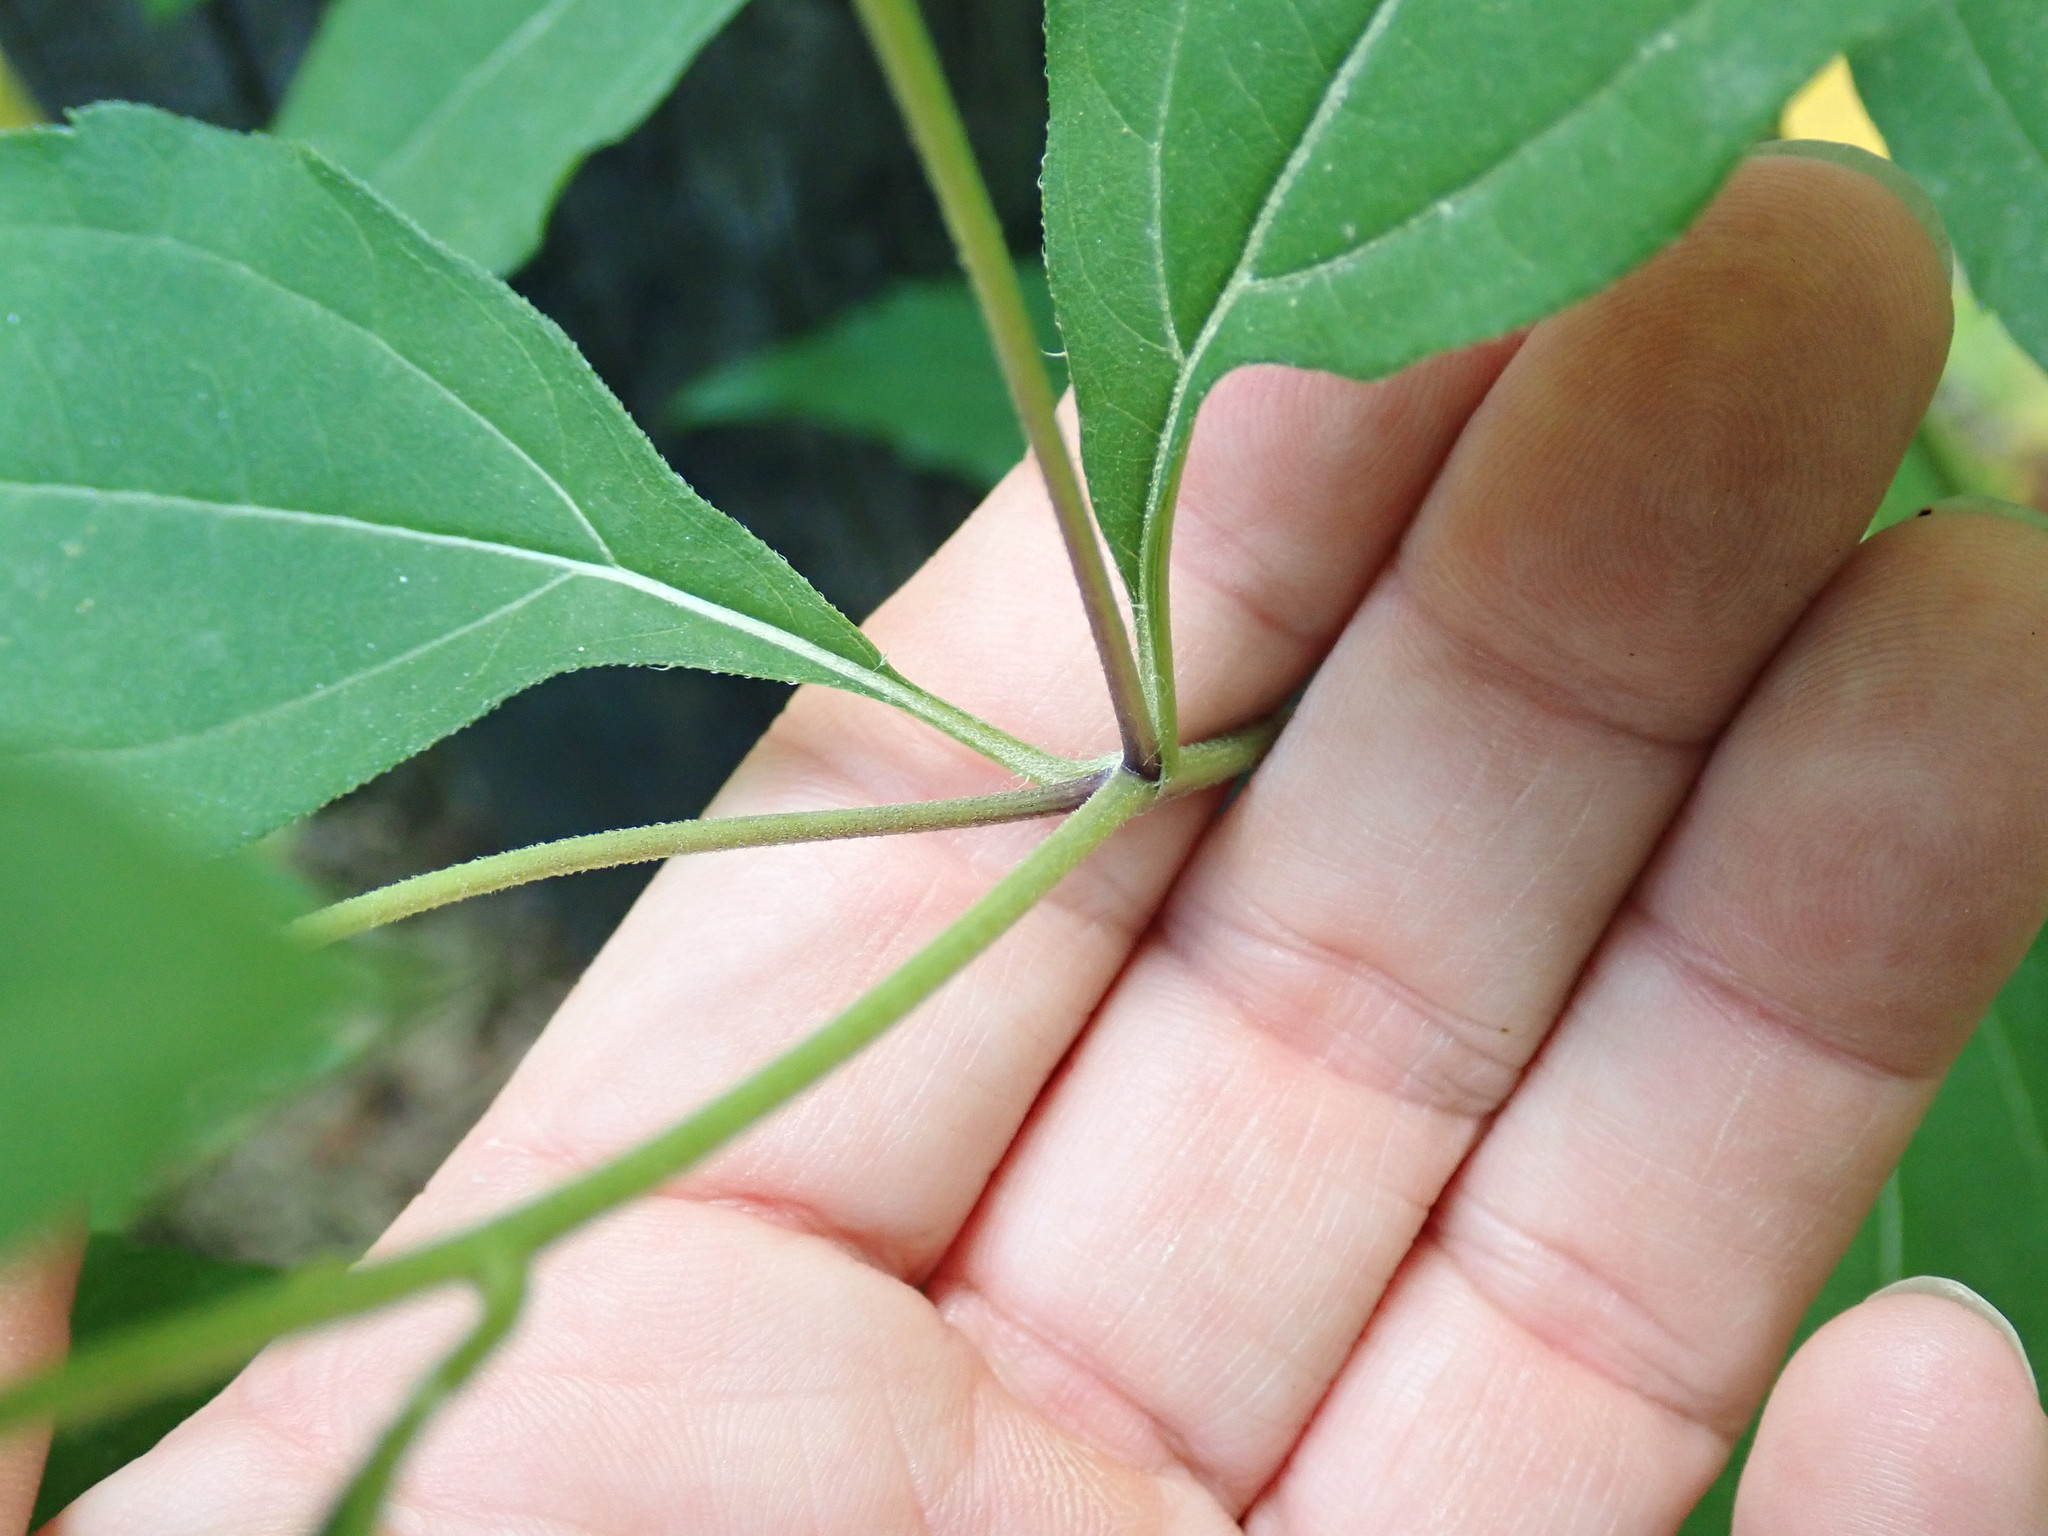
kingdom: Plantae
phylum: Tracheophyta
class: Magnoliopsida
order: Asterales
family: Asteraceae
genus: Helianthus
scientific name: Helianthus
